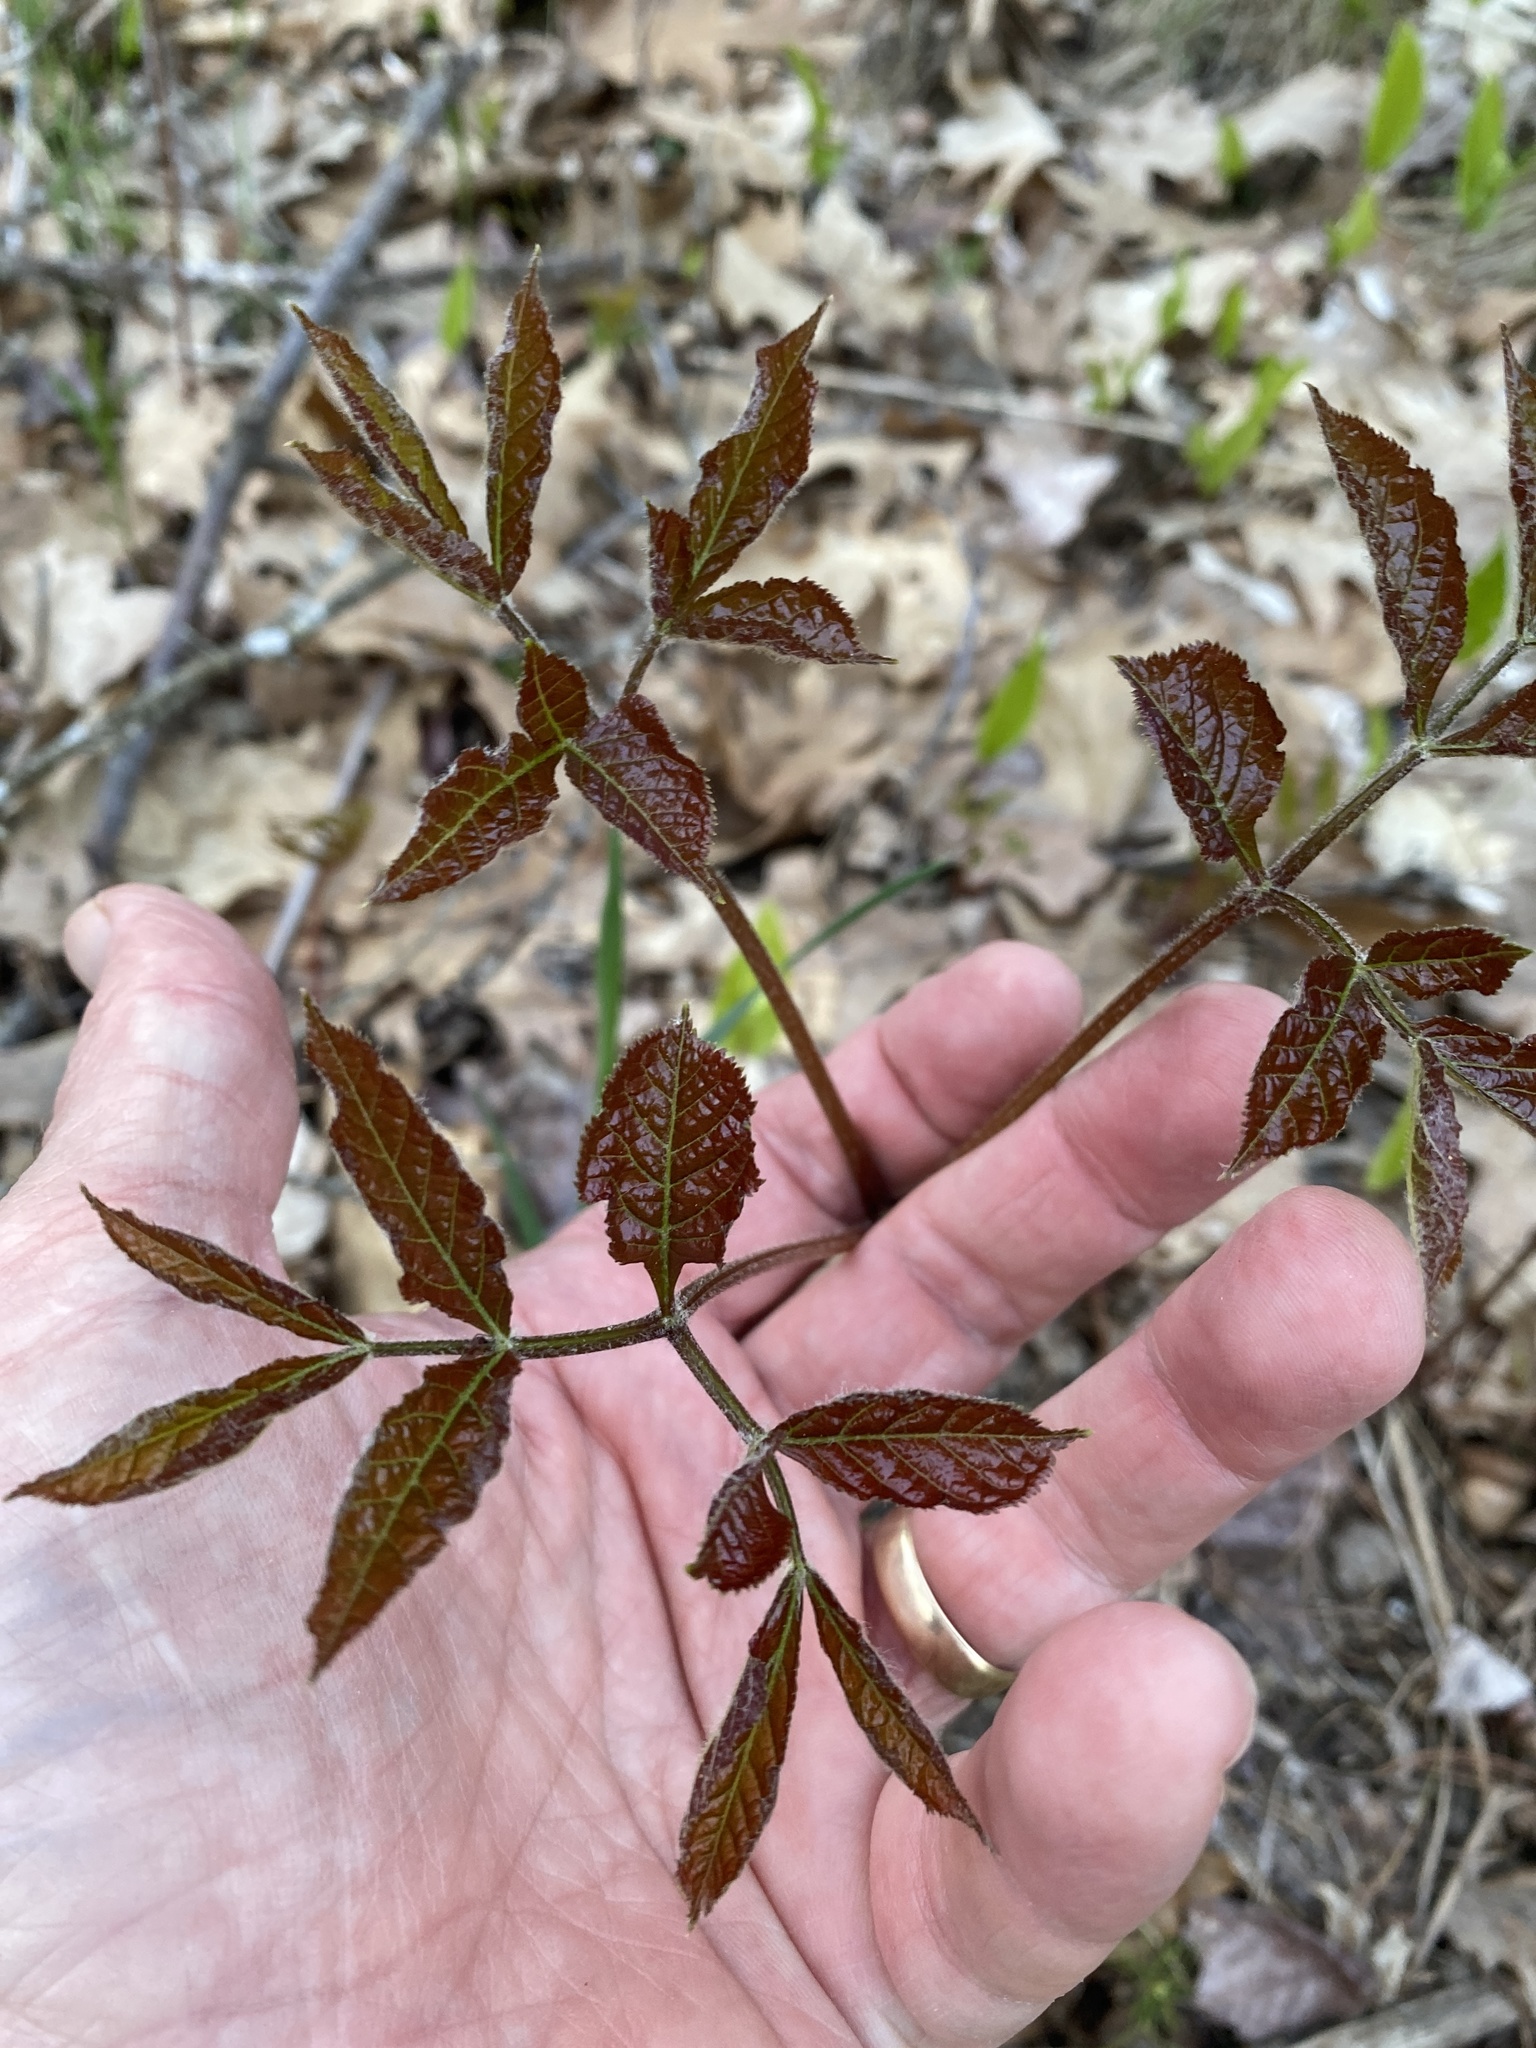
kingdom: Plantae
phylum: Tracheophyta
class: Magnoliopsida
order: Apiales
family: Araliaceae
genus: Aralia
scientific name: Aralia nudicaulis
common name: Wild sarsaparilla
